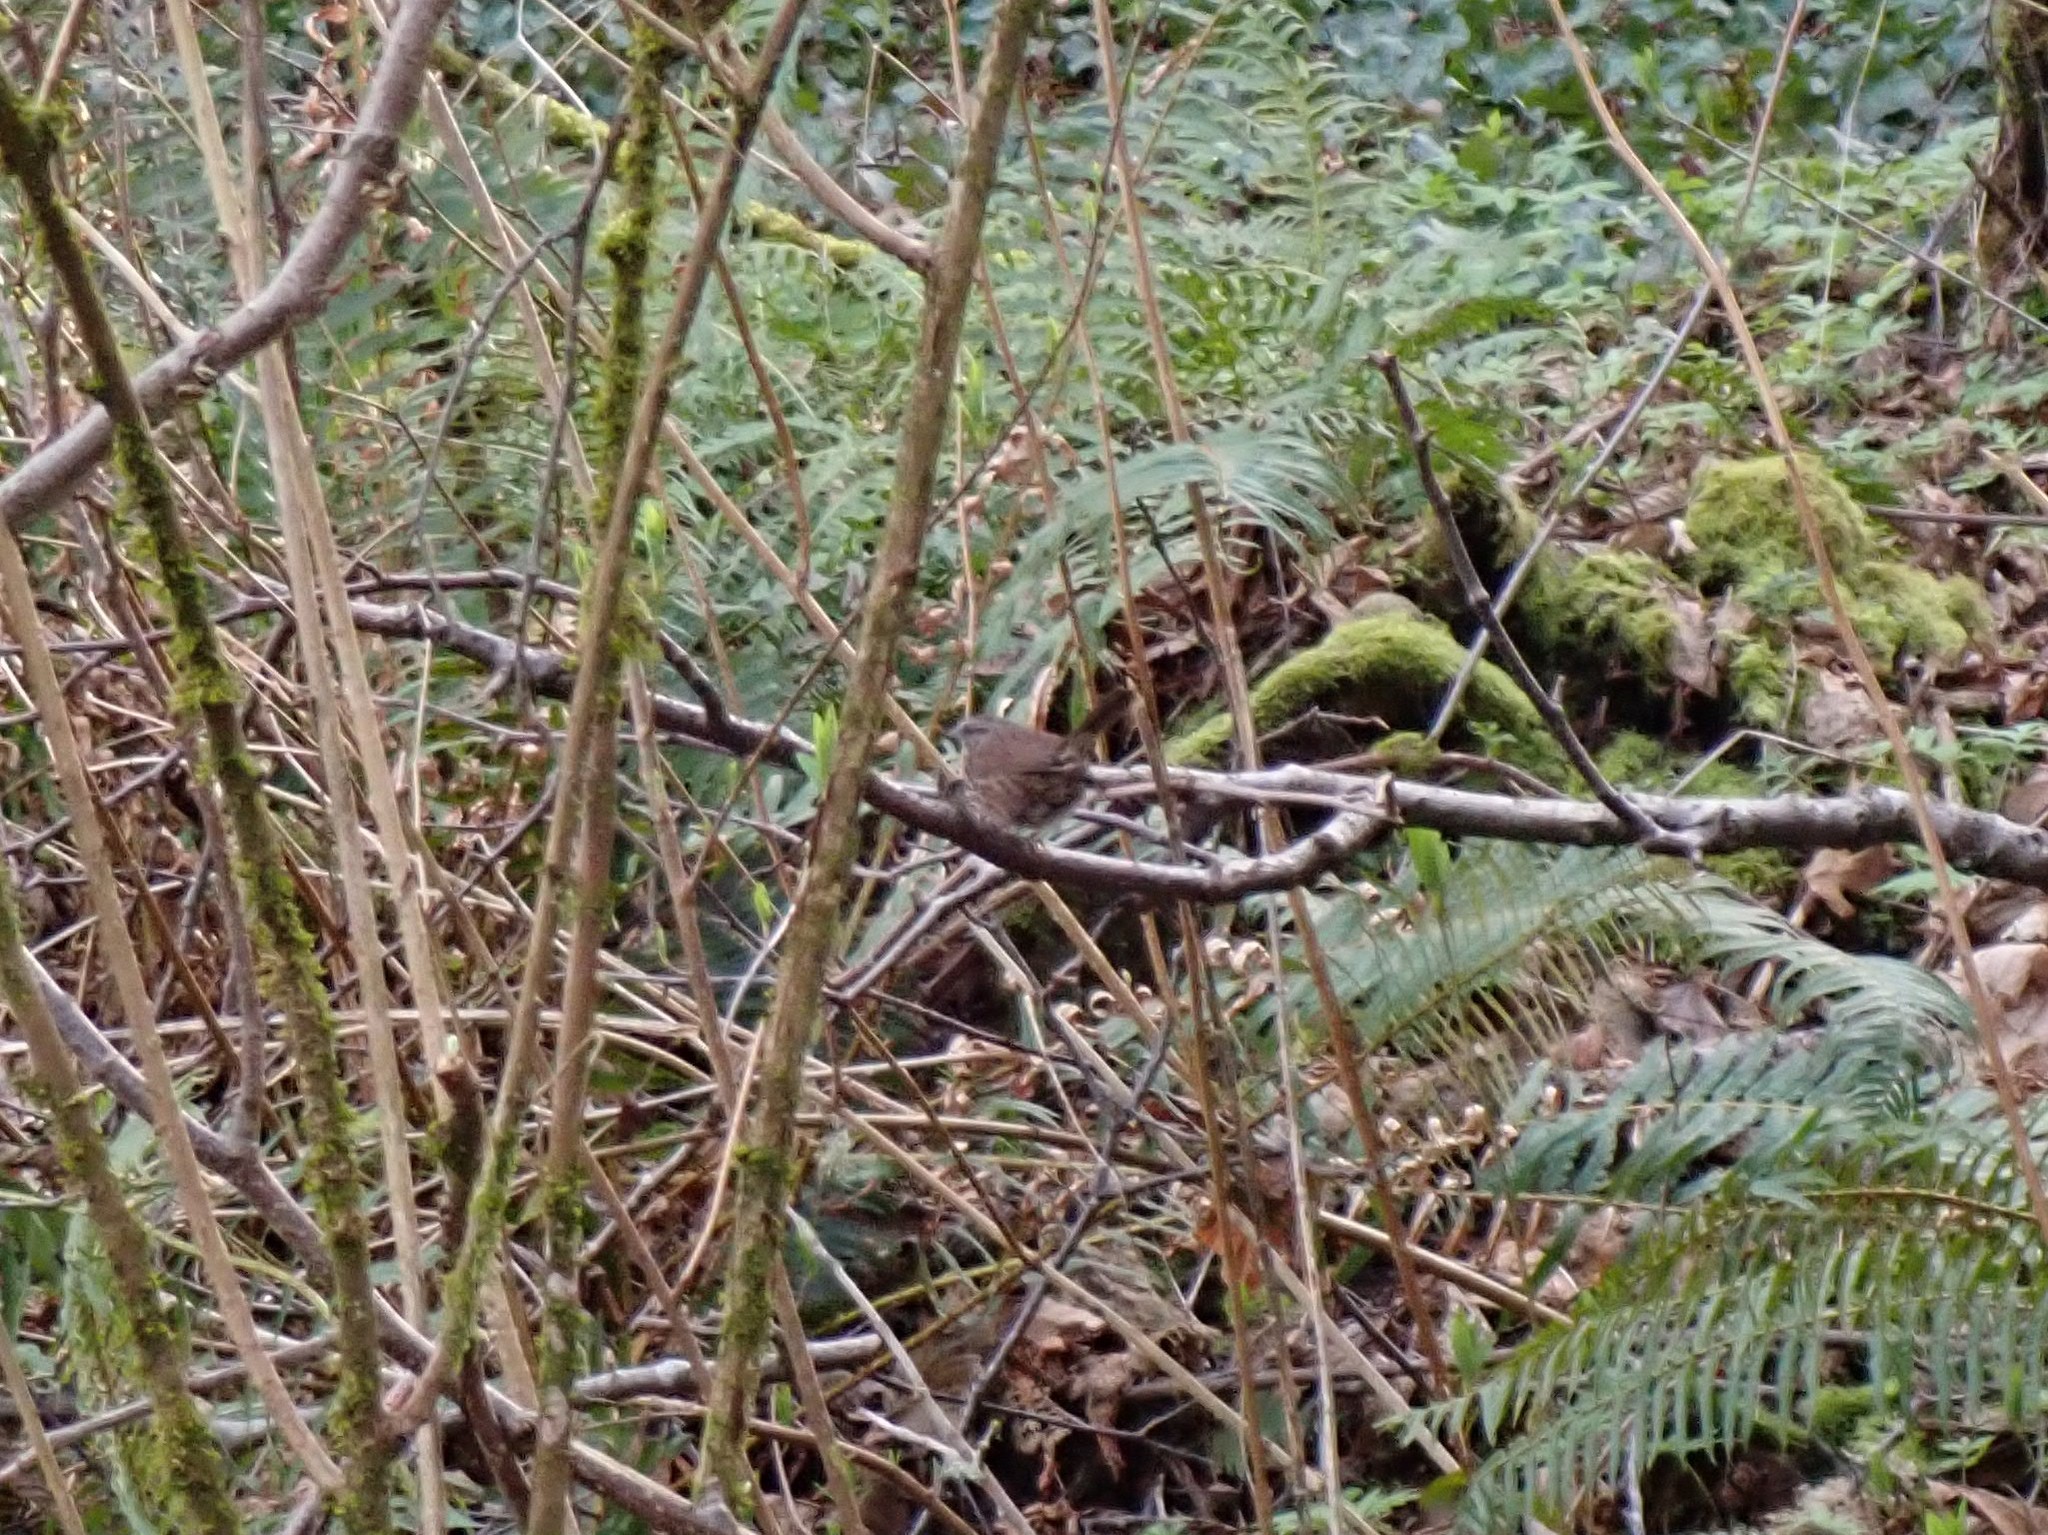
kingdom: Animalia
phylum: Chordata
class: Aves
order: Passeriformes
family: Passerellidae
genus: Melospiza
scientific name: Melospiza melodia
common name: Song sparrow
